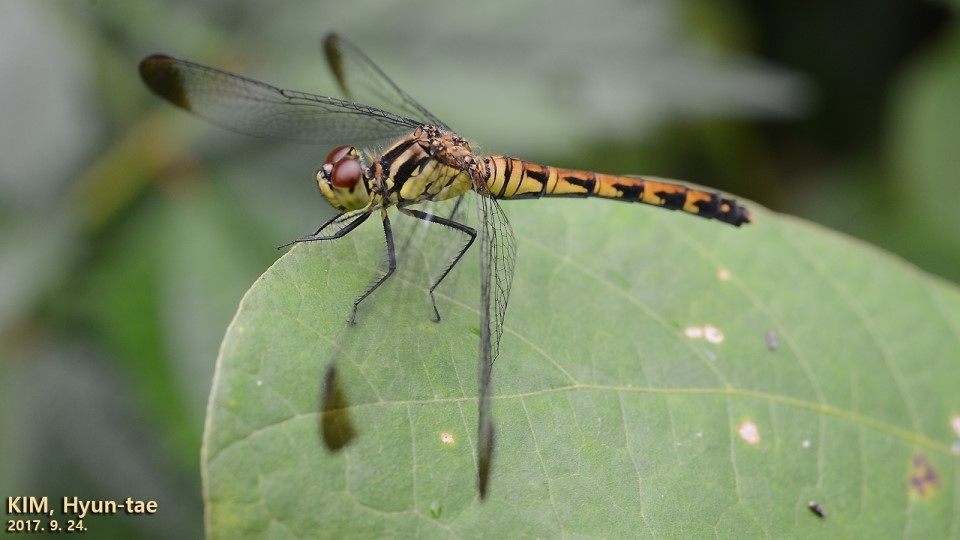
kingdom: Animalia
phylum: Arthropoda
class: Insecta
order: Odonata
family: Libellulidae
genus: Sympetrum
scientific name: Sympetrum eroticum
